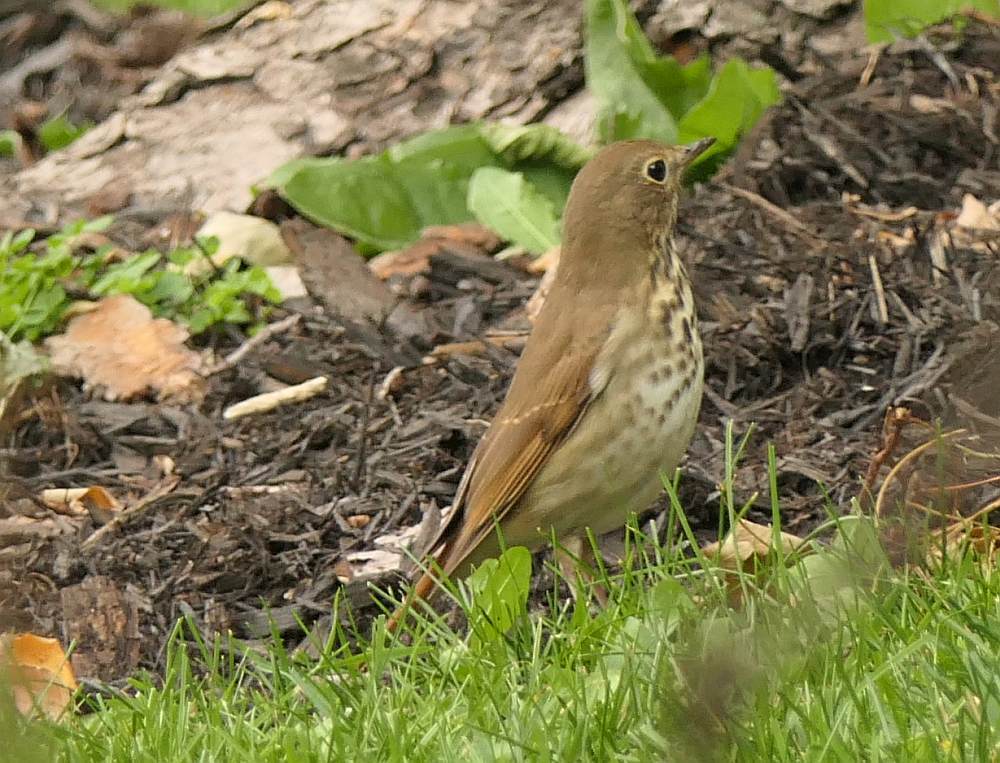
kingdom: Animalia
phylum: Chordata
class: Aves
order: Passeriformes
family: Turdidae
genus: Catharus
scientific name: Catharus guttatus
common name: Hermit thrush
